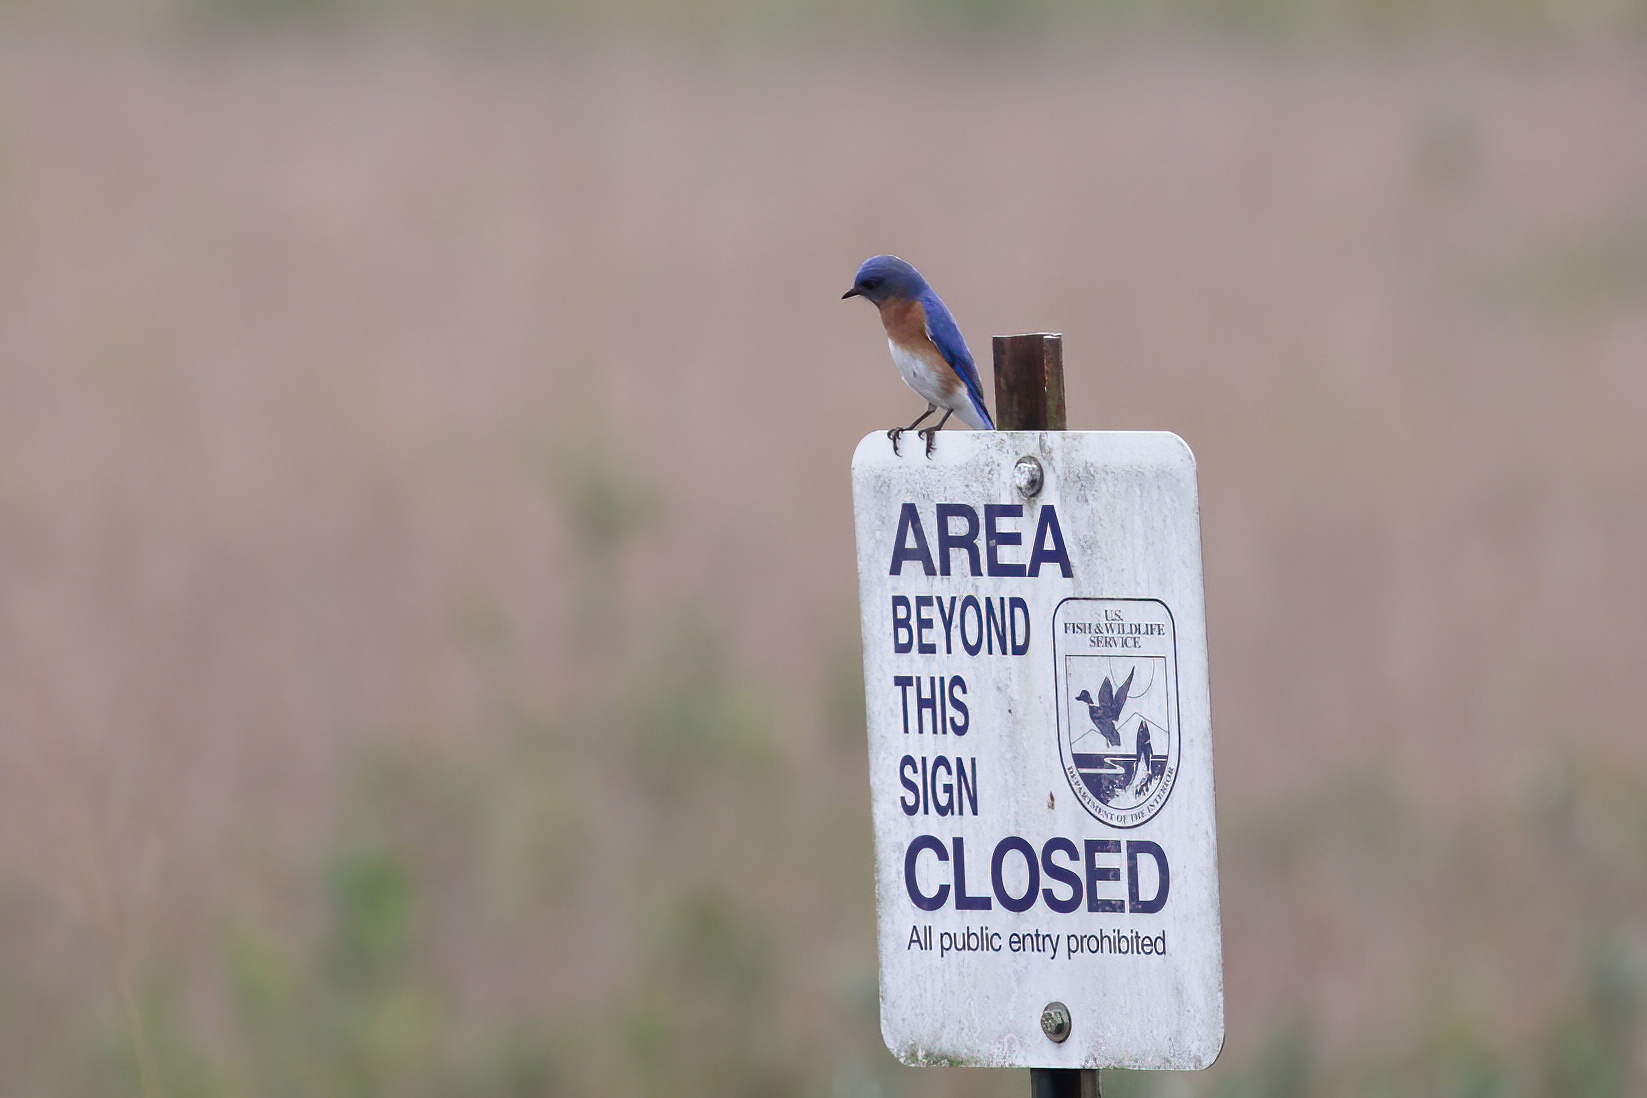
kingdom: Animalia
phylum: Chordata
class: Aves
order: Passeriformes
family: Turdidae
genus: Sialia
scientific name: Sialia sialis
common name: Eastern bluebird
